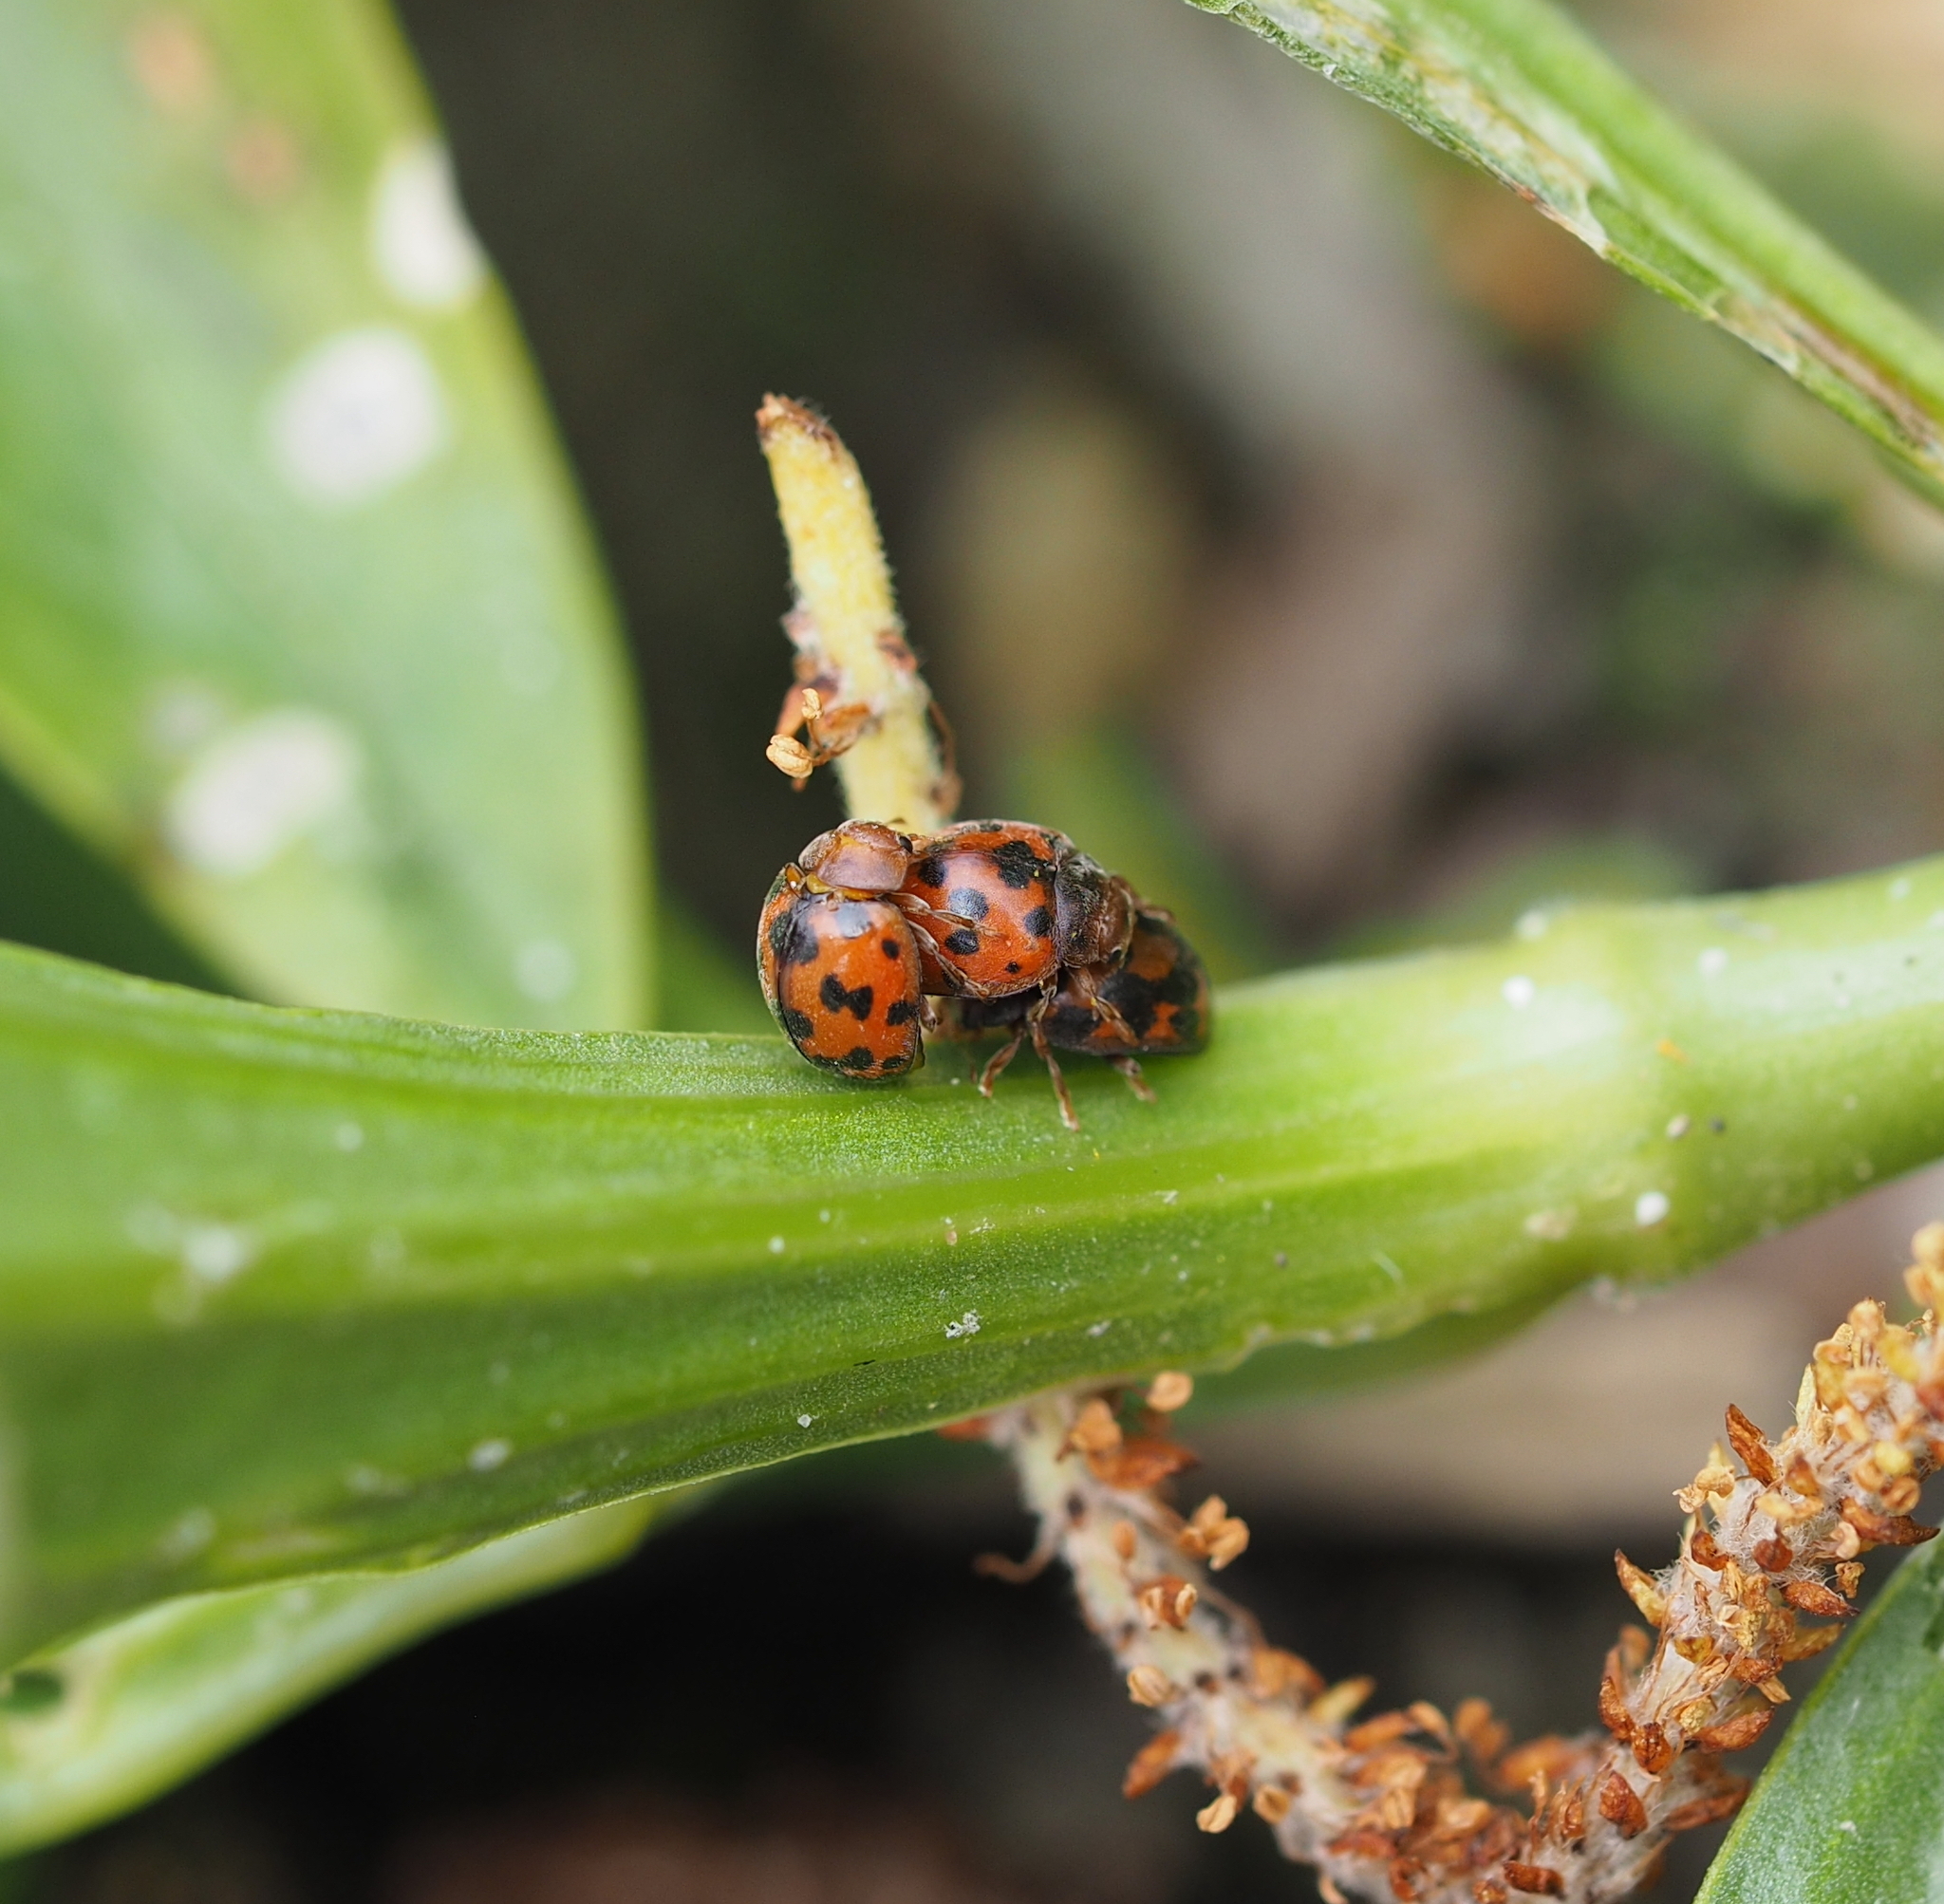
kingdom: Animalia
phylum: Arthropoda
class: Insecta
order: Coleoptera
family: Coccinellidae
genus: Subcoccinella
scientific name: Subcoccinella vigintiquatuorpunctata
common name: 24-spot ladybird
